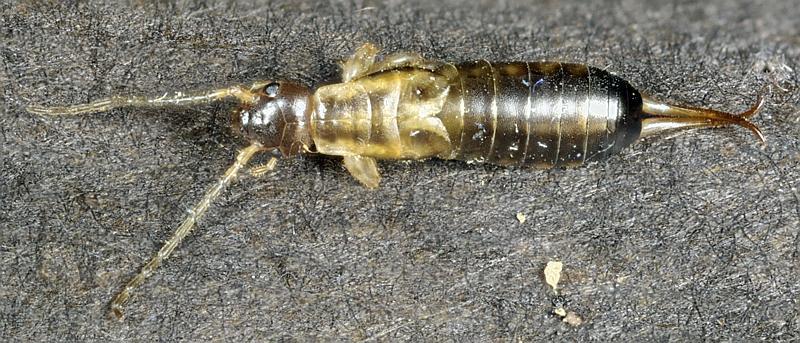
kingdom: Animalia
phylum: Arthropoda
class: Insecta
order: Dermaptera
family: Forficulidae
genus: Forficula
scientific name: Forficula
